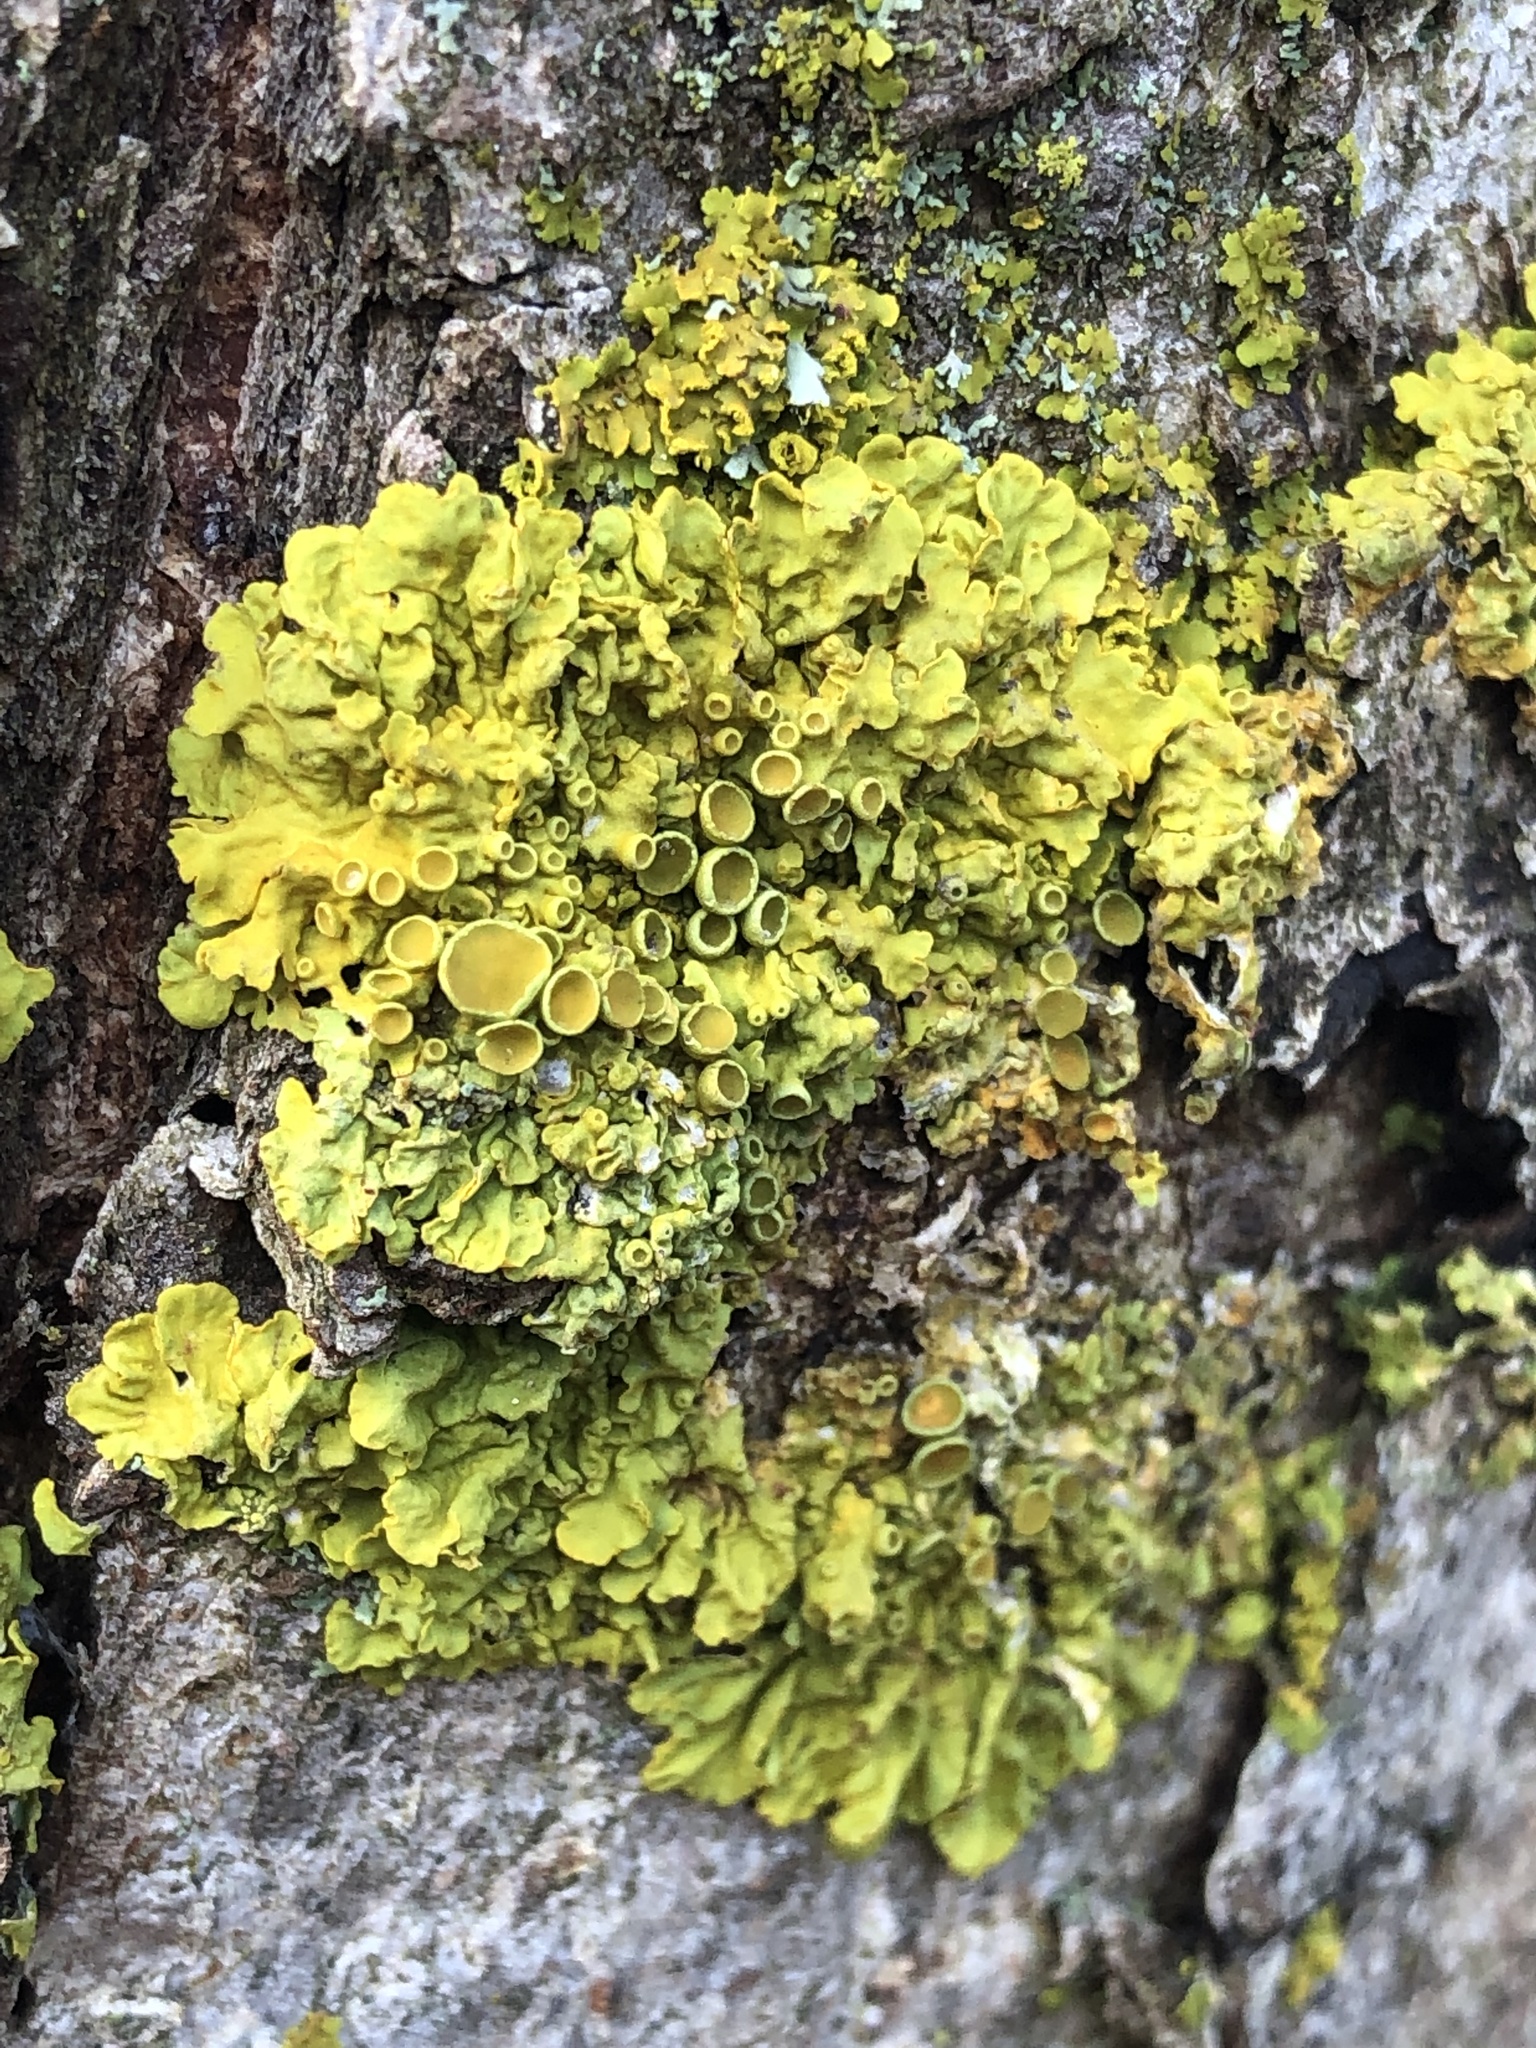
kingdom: Fungi
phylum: Ascomycota
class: Lecanoromycetes
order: Teloschistales
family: Teloschistaceae
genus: Xanthoria
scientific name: Xanthoria parietina
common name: Common orange lichen
